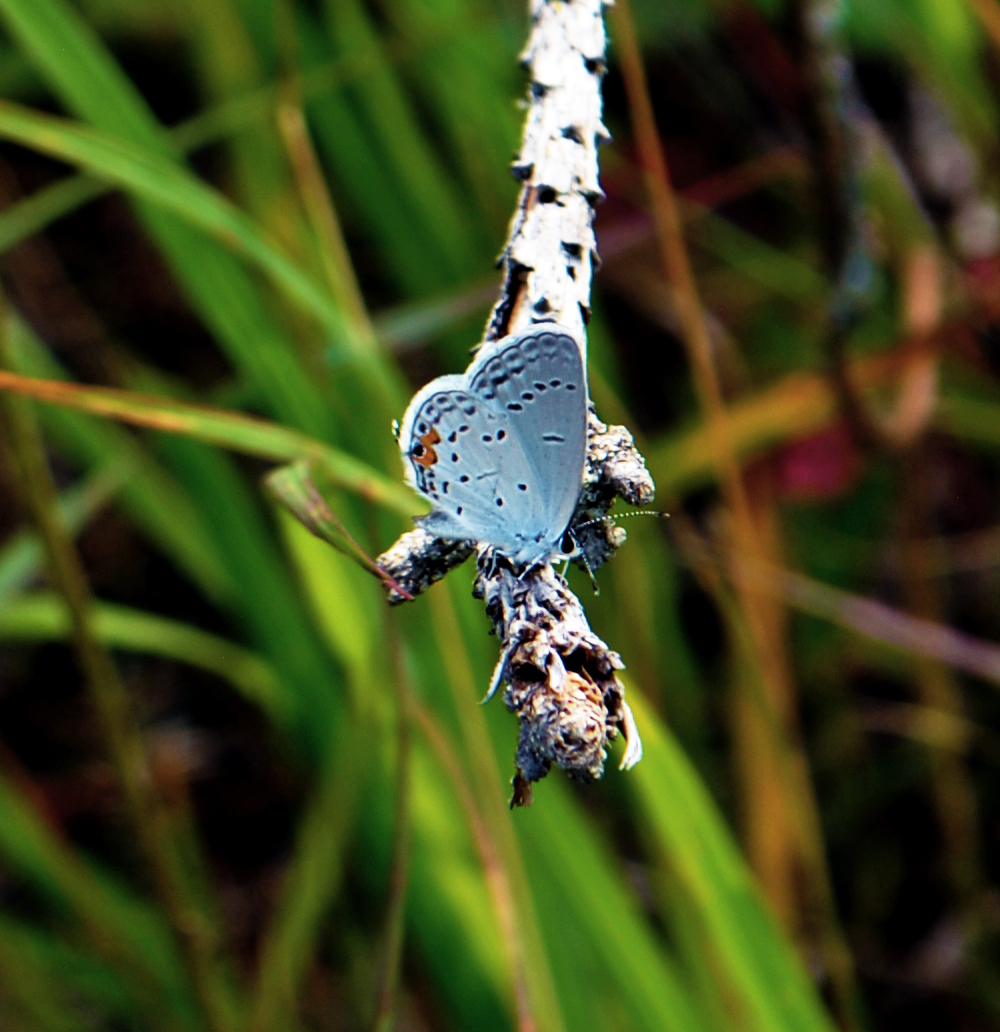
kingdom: Animalia
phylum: Arthropoda
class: Insecta
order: Lepidoptera
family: Lycaenidae
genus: Elkalyce
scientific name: Elkalyce comyntas
